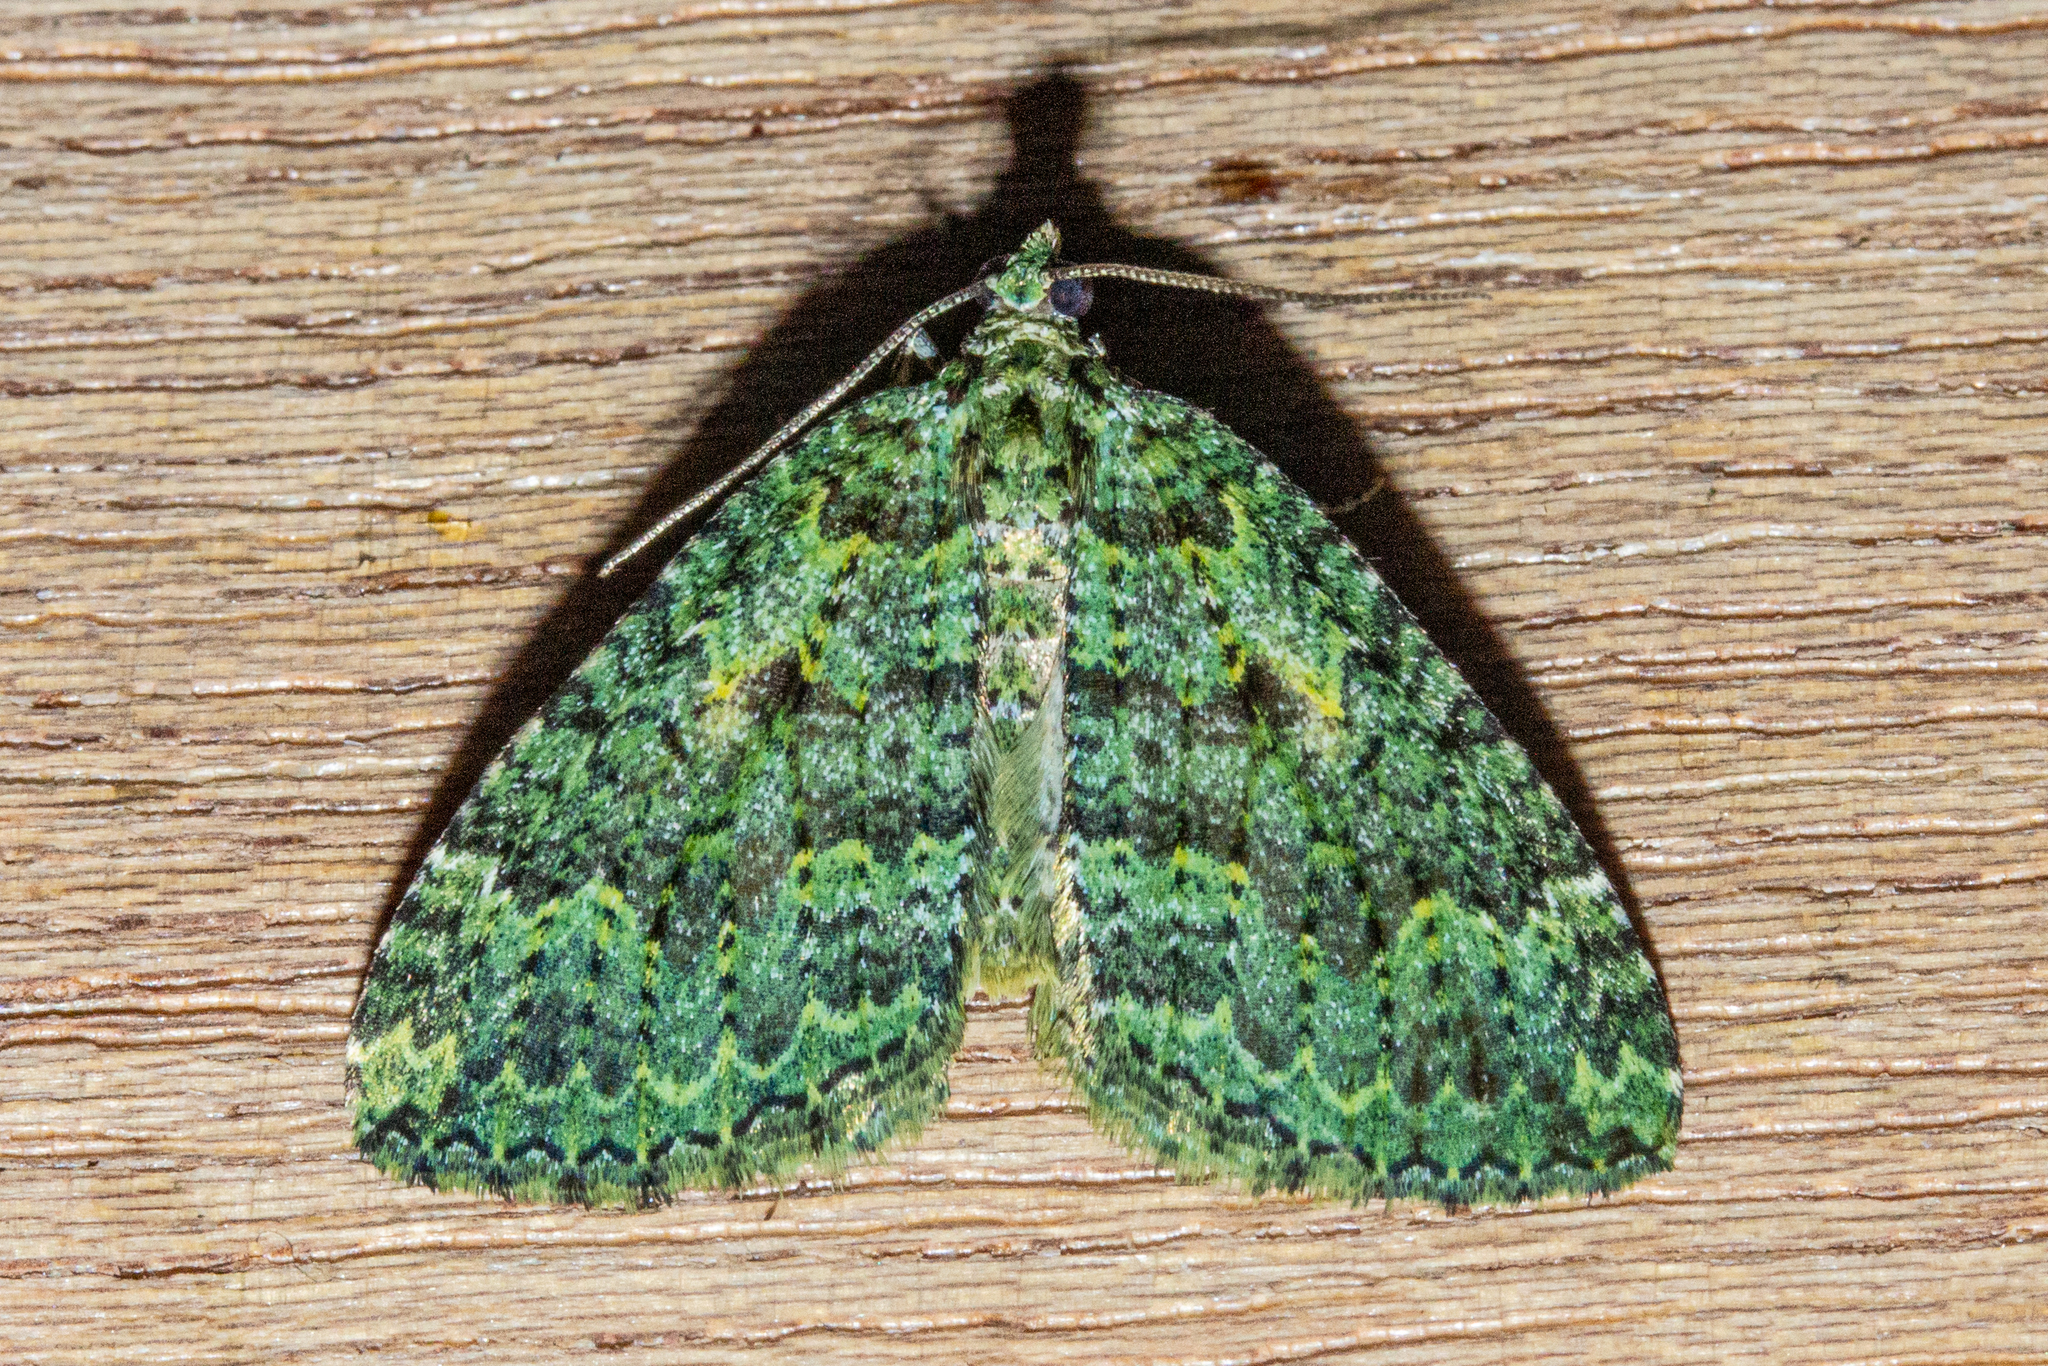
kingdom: Animalia
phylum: Arthropoda
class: Insecta
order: Lepidoptera
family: Geometridae
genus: Austrocidaria
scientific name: Austrocidaria callichlora
